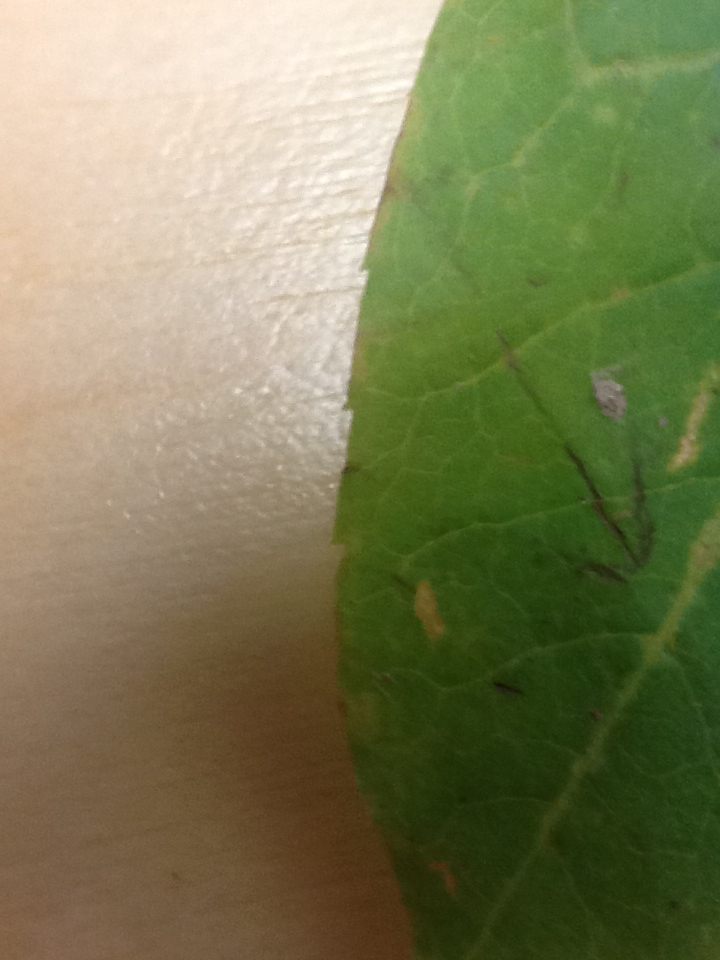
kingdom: Plantae
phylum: Tracheophyta
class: Magnoliopsida
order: Aquifoliales
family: Aquifoliaceae
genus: Ilex
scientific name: Ilex mucronata
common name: Catberry
